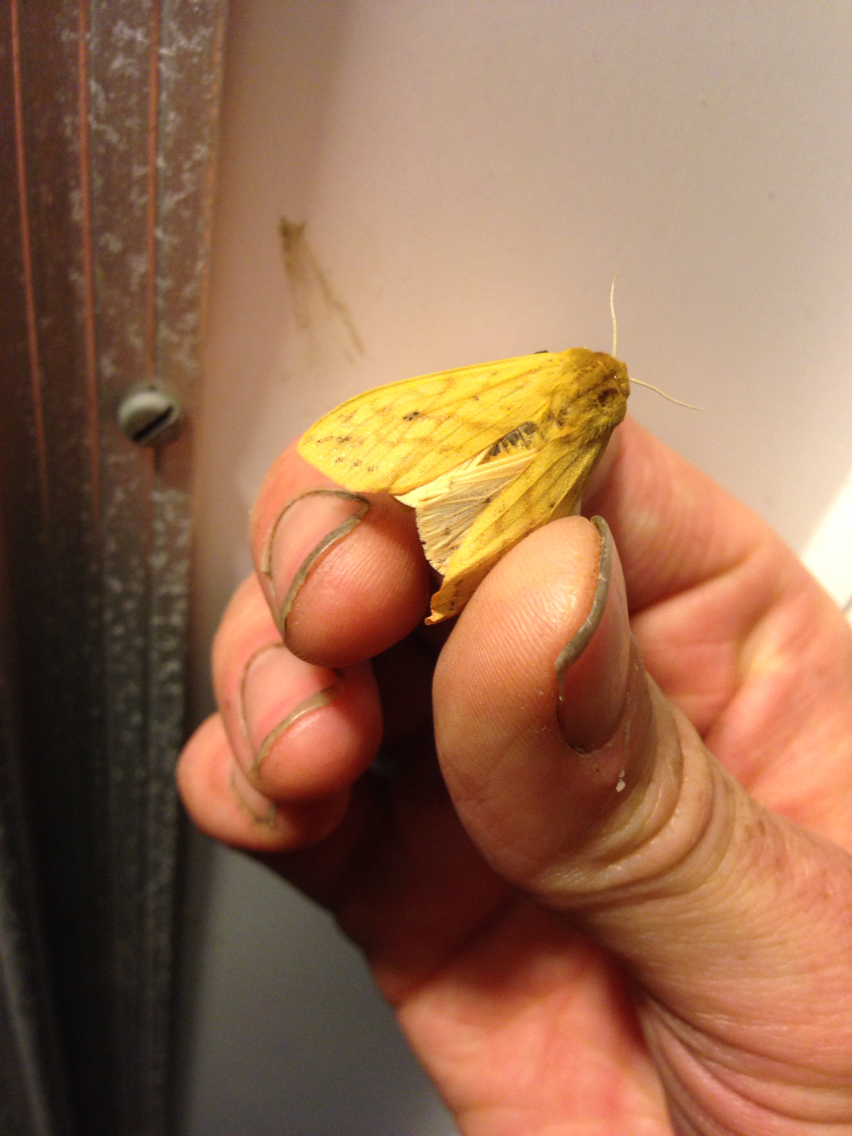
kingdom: Animalia
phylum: Arthropoda
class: Insecta
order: Lepidoptera
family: Erebidae
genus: Pyrrharctia
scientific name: Pyrrharctia isabella
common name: Isabella tiger moth
